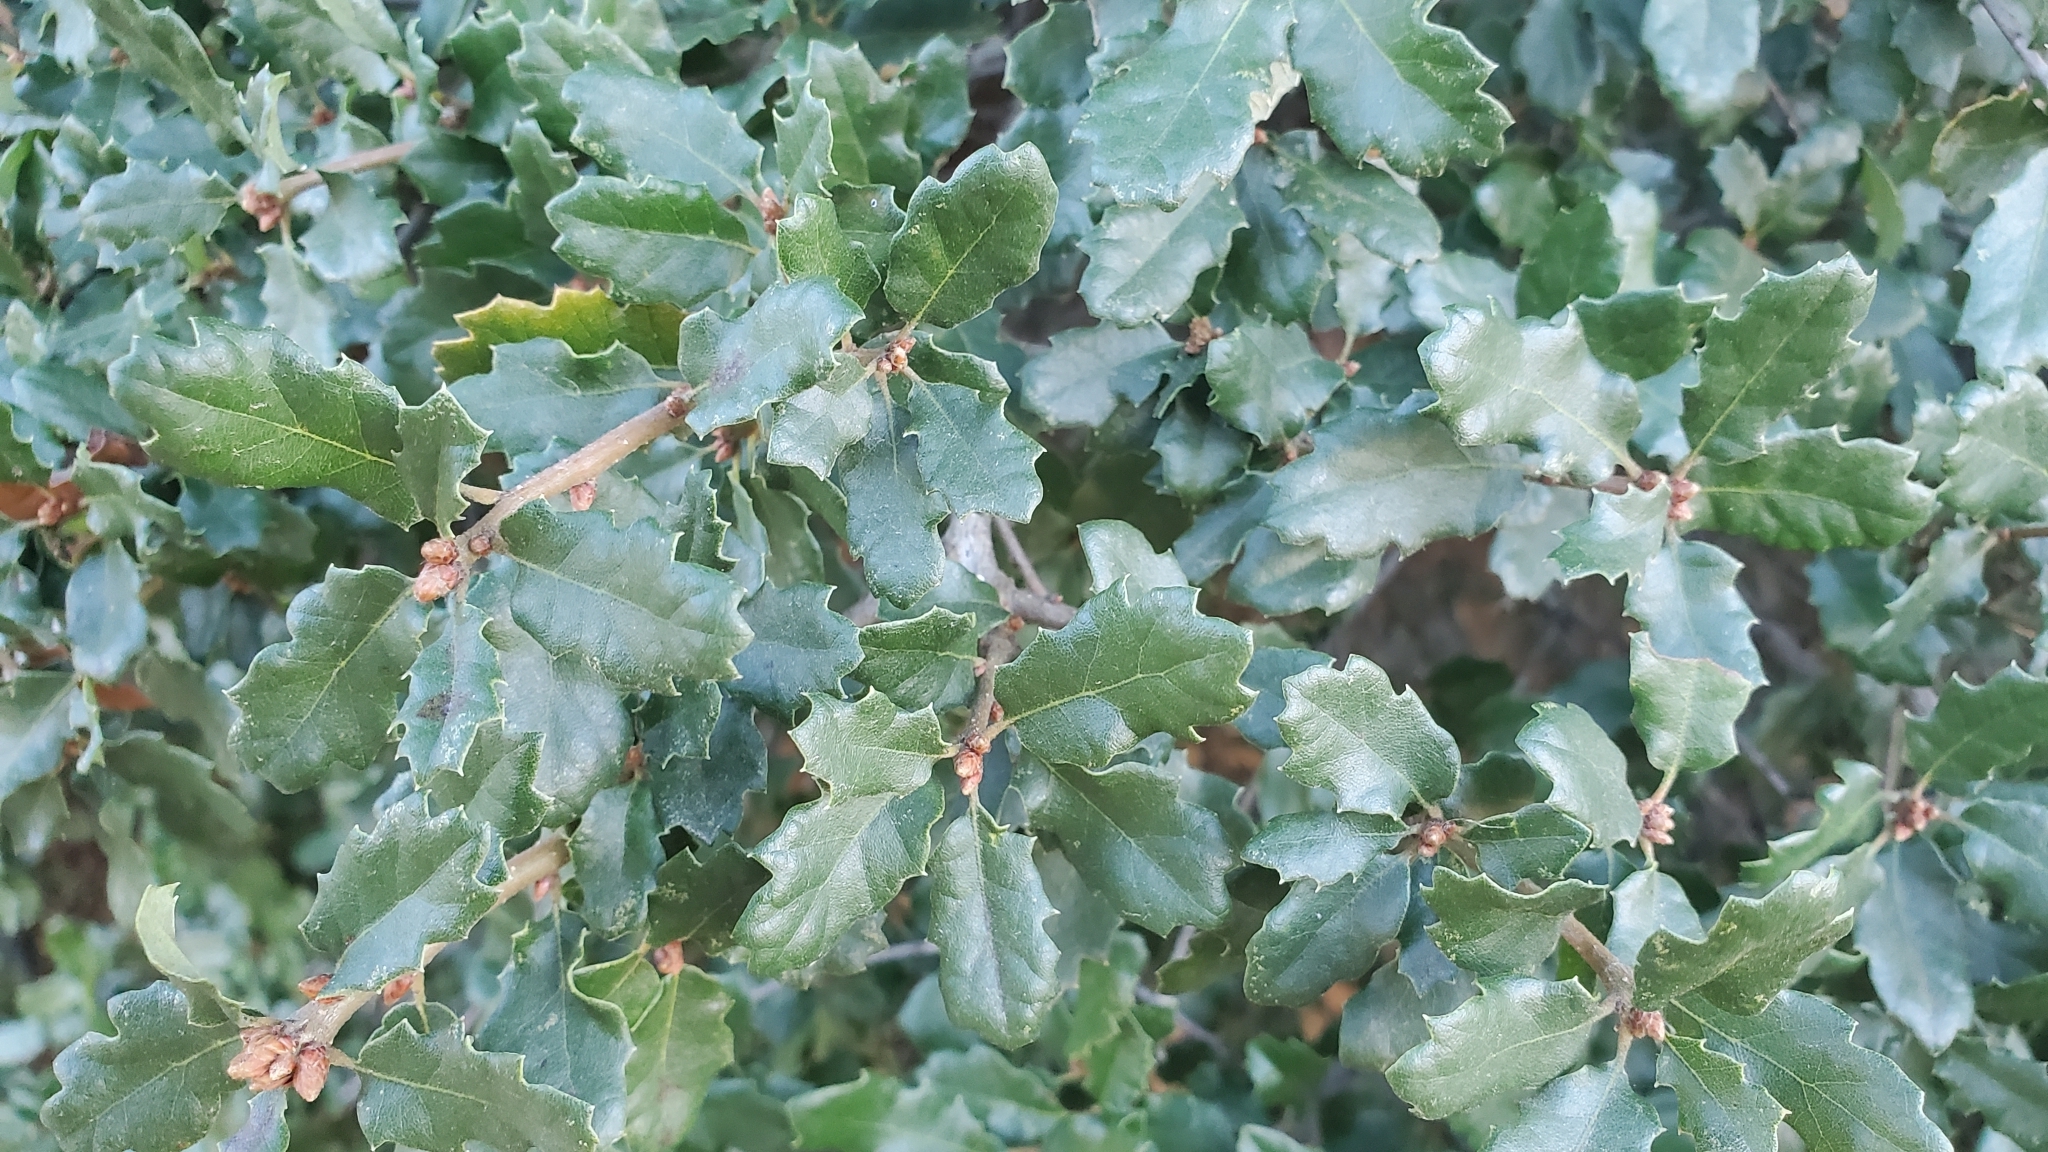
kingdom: Plantae
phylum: Tracheophyta
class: Magnoliopsida
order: Fagales
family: Fagaceae
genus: Quercus
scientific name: Quercus berberidifolia
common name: California scrub oak
